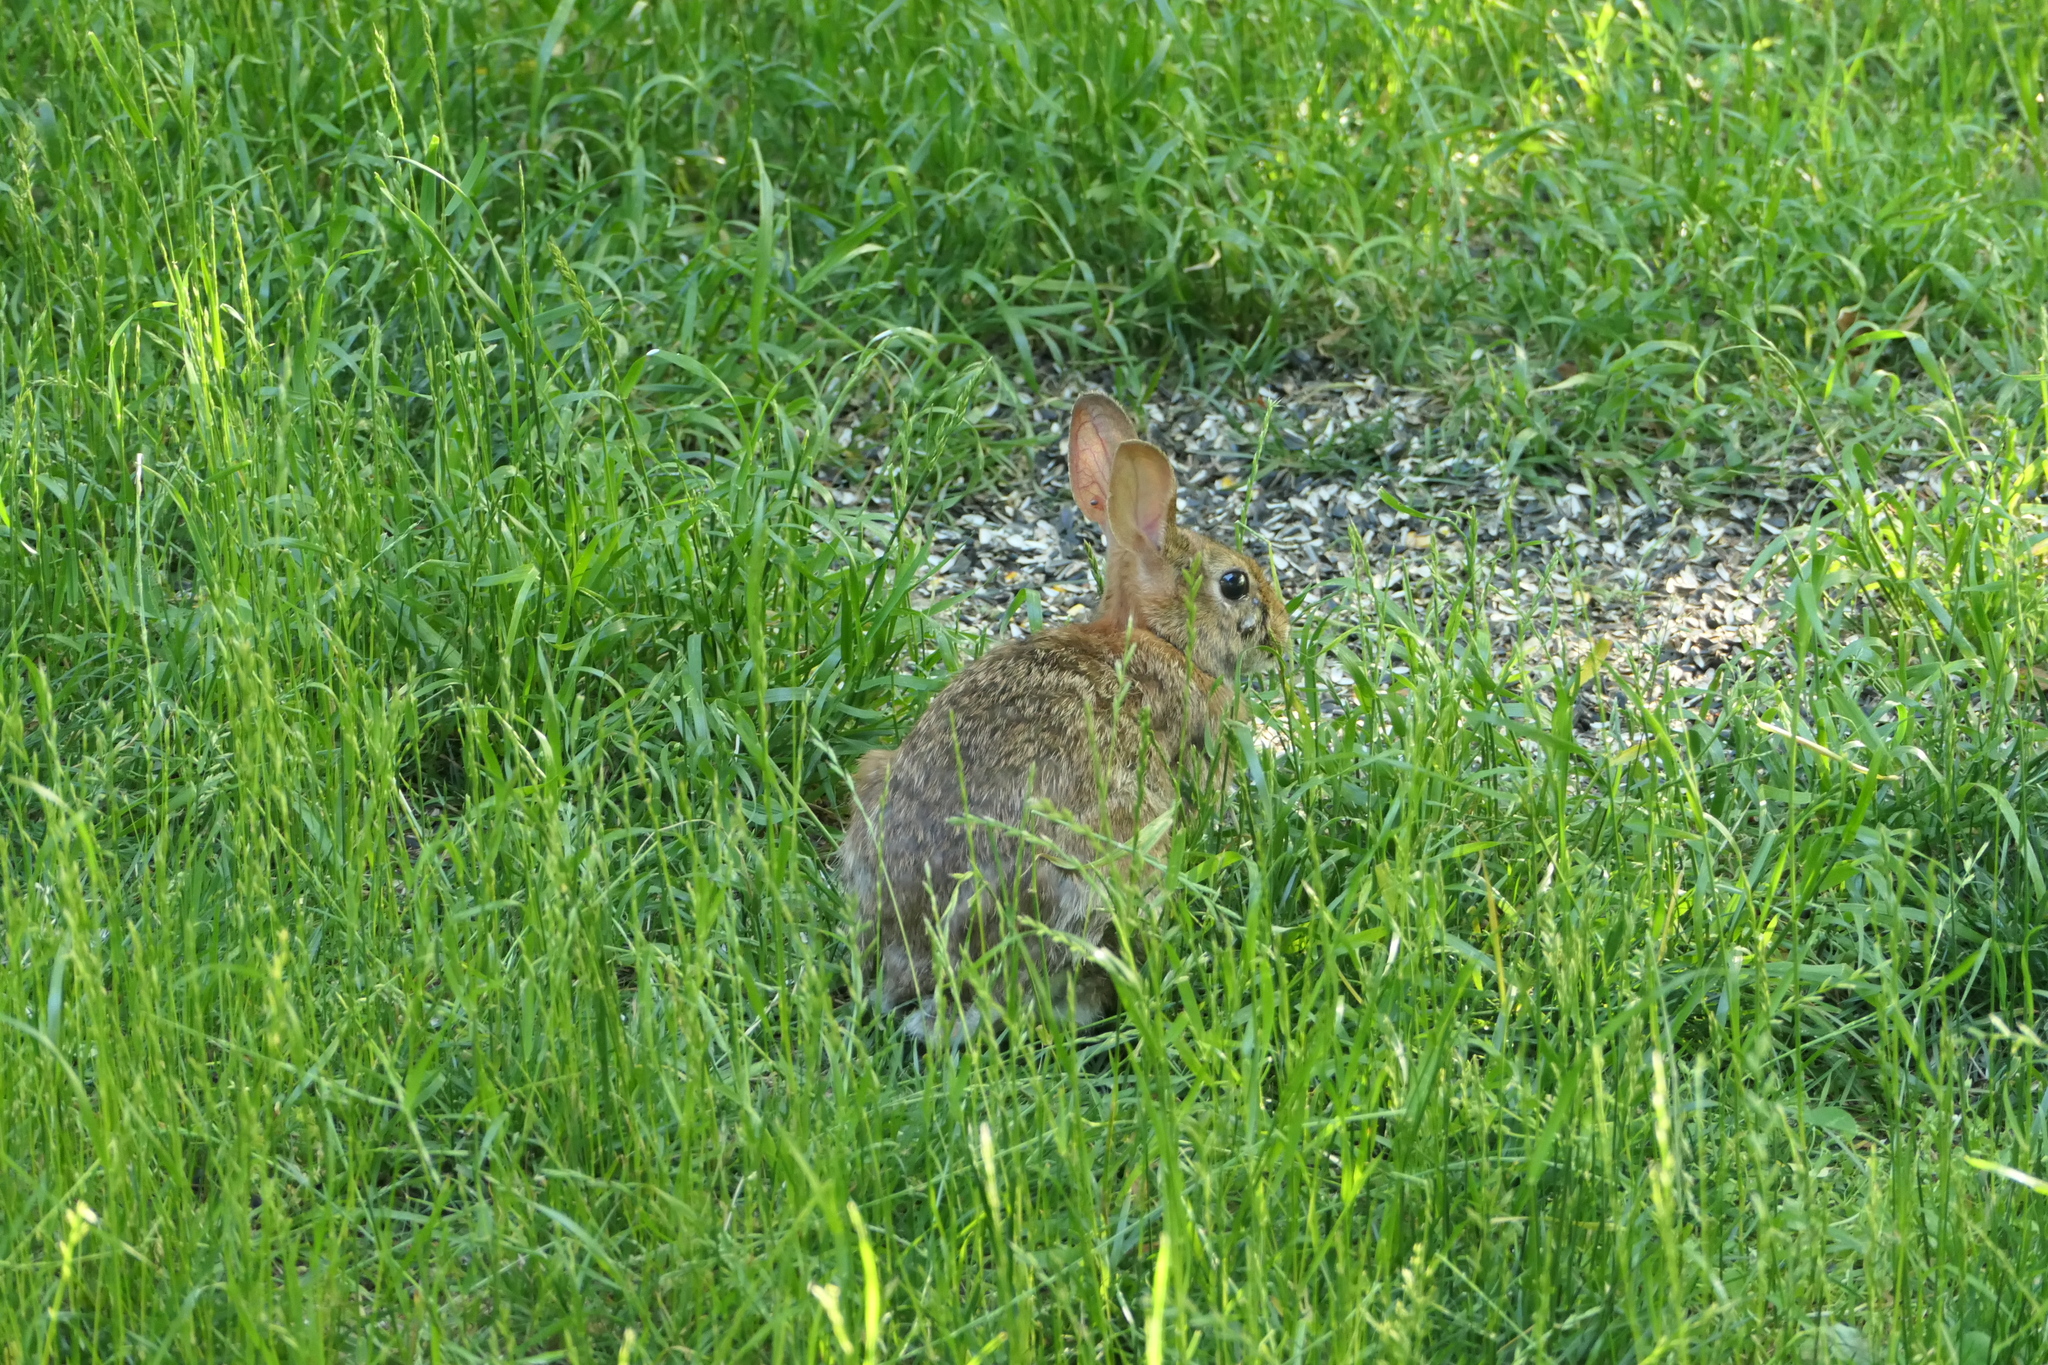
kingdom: Animalia
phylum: Chordata
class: Mammalia
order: Lagomorpha
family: Leporidae
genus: Sylvilagus
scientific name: Sylvilagus floridanus
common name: Eastern cottontail
